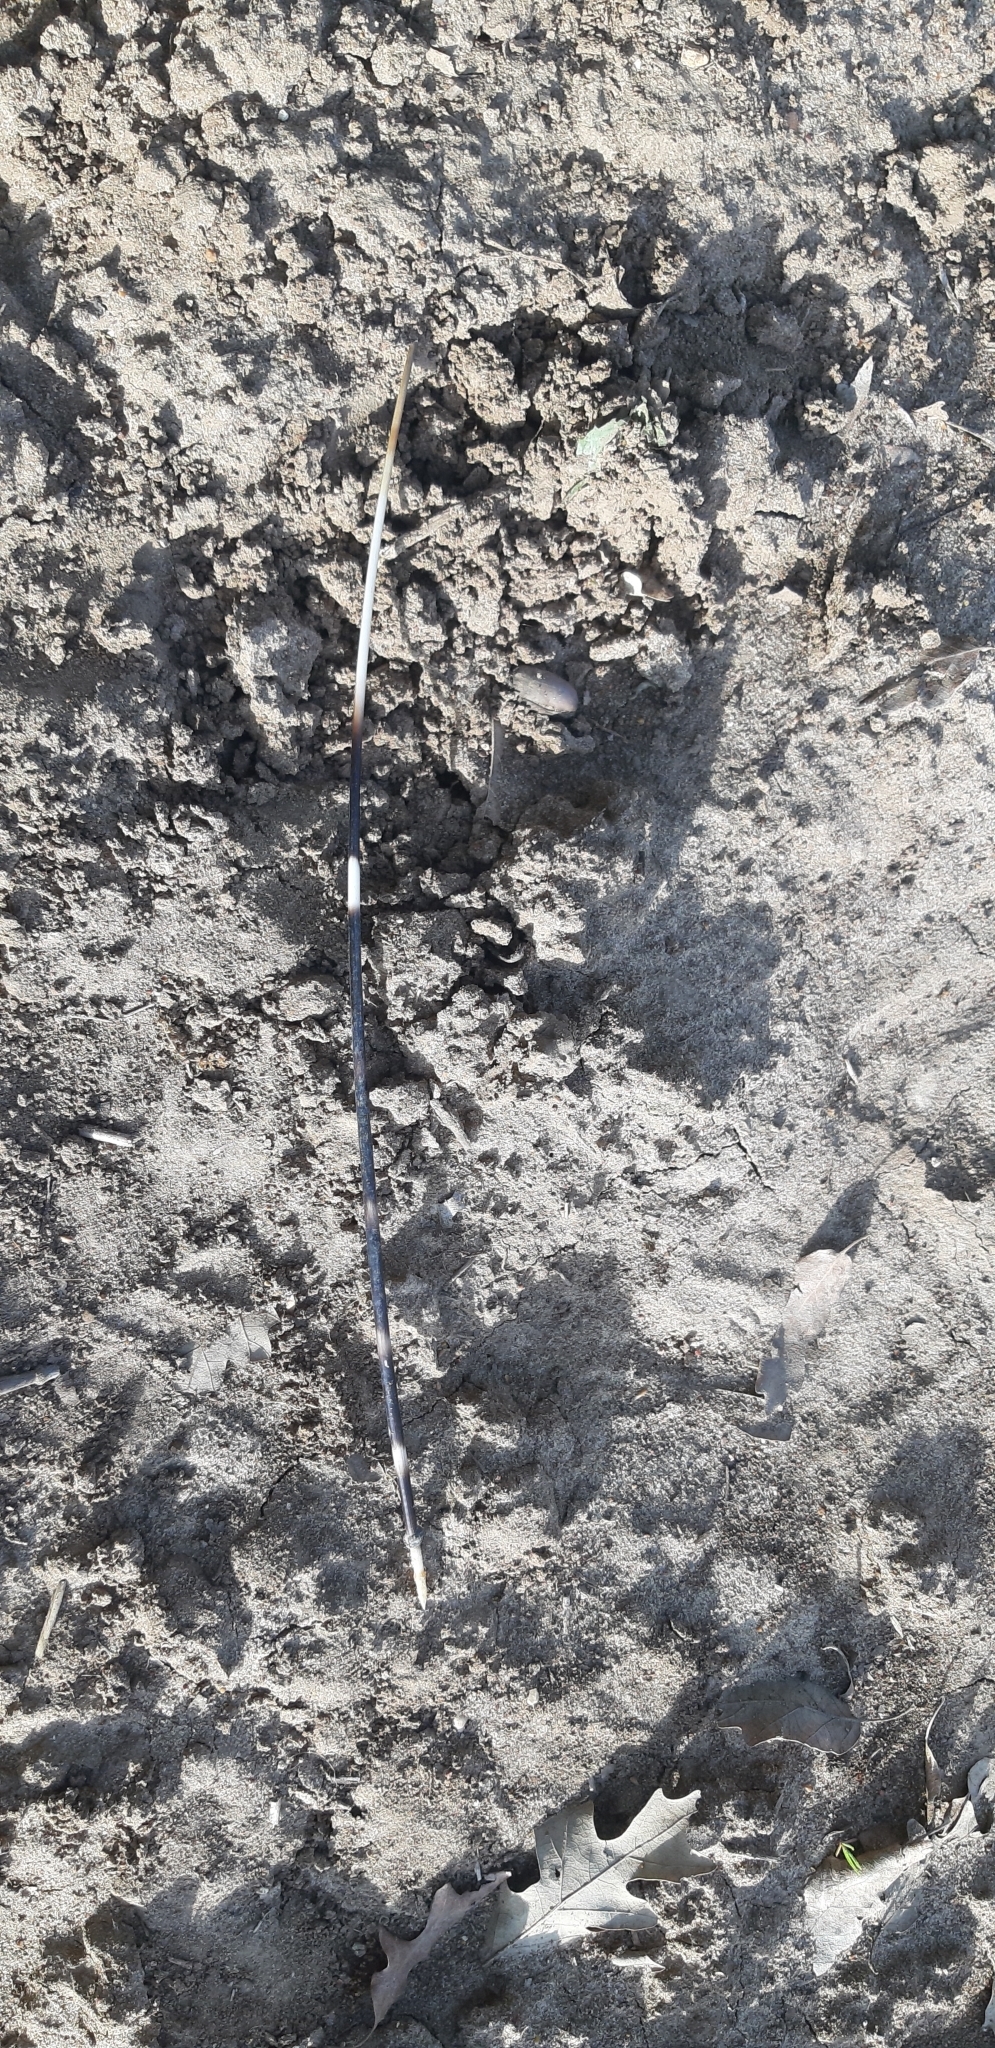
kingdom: Animalia
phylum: Chordata
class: Mammalia
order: Rodentia
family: Hystricidae
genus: Hystrix
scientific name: Hystrix cristata
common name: Crested porcupine
